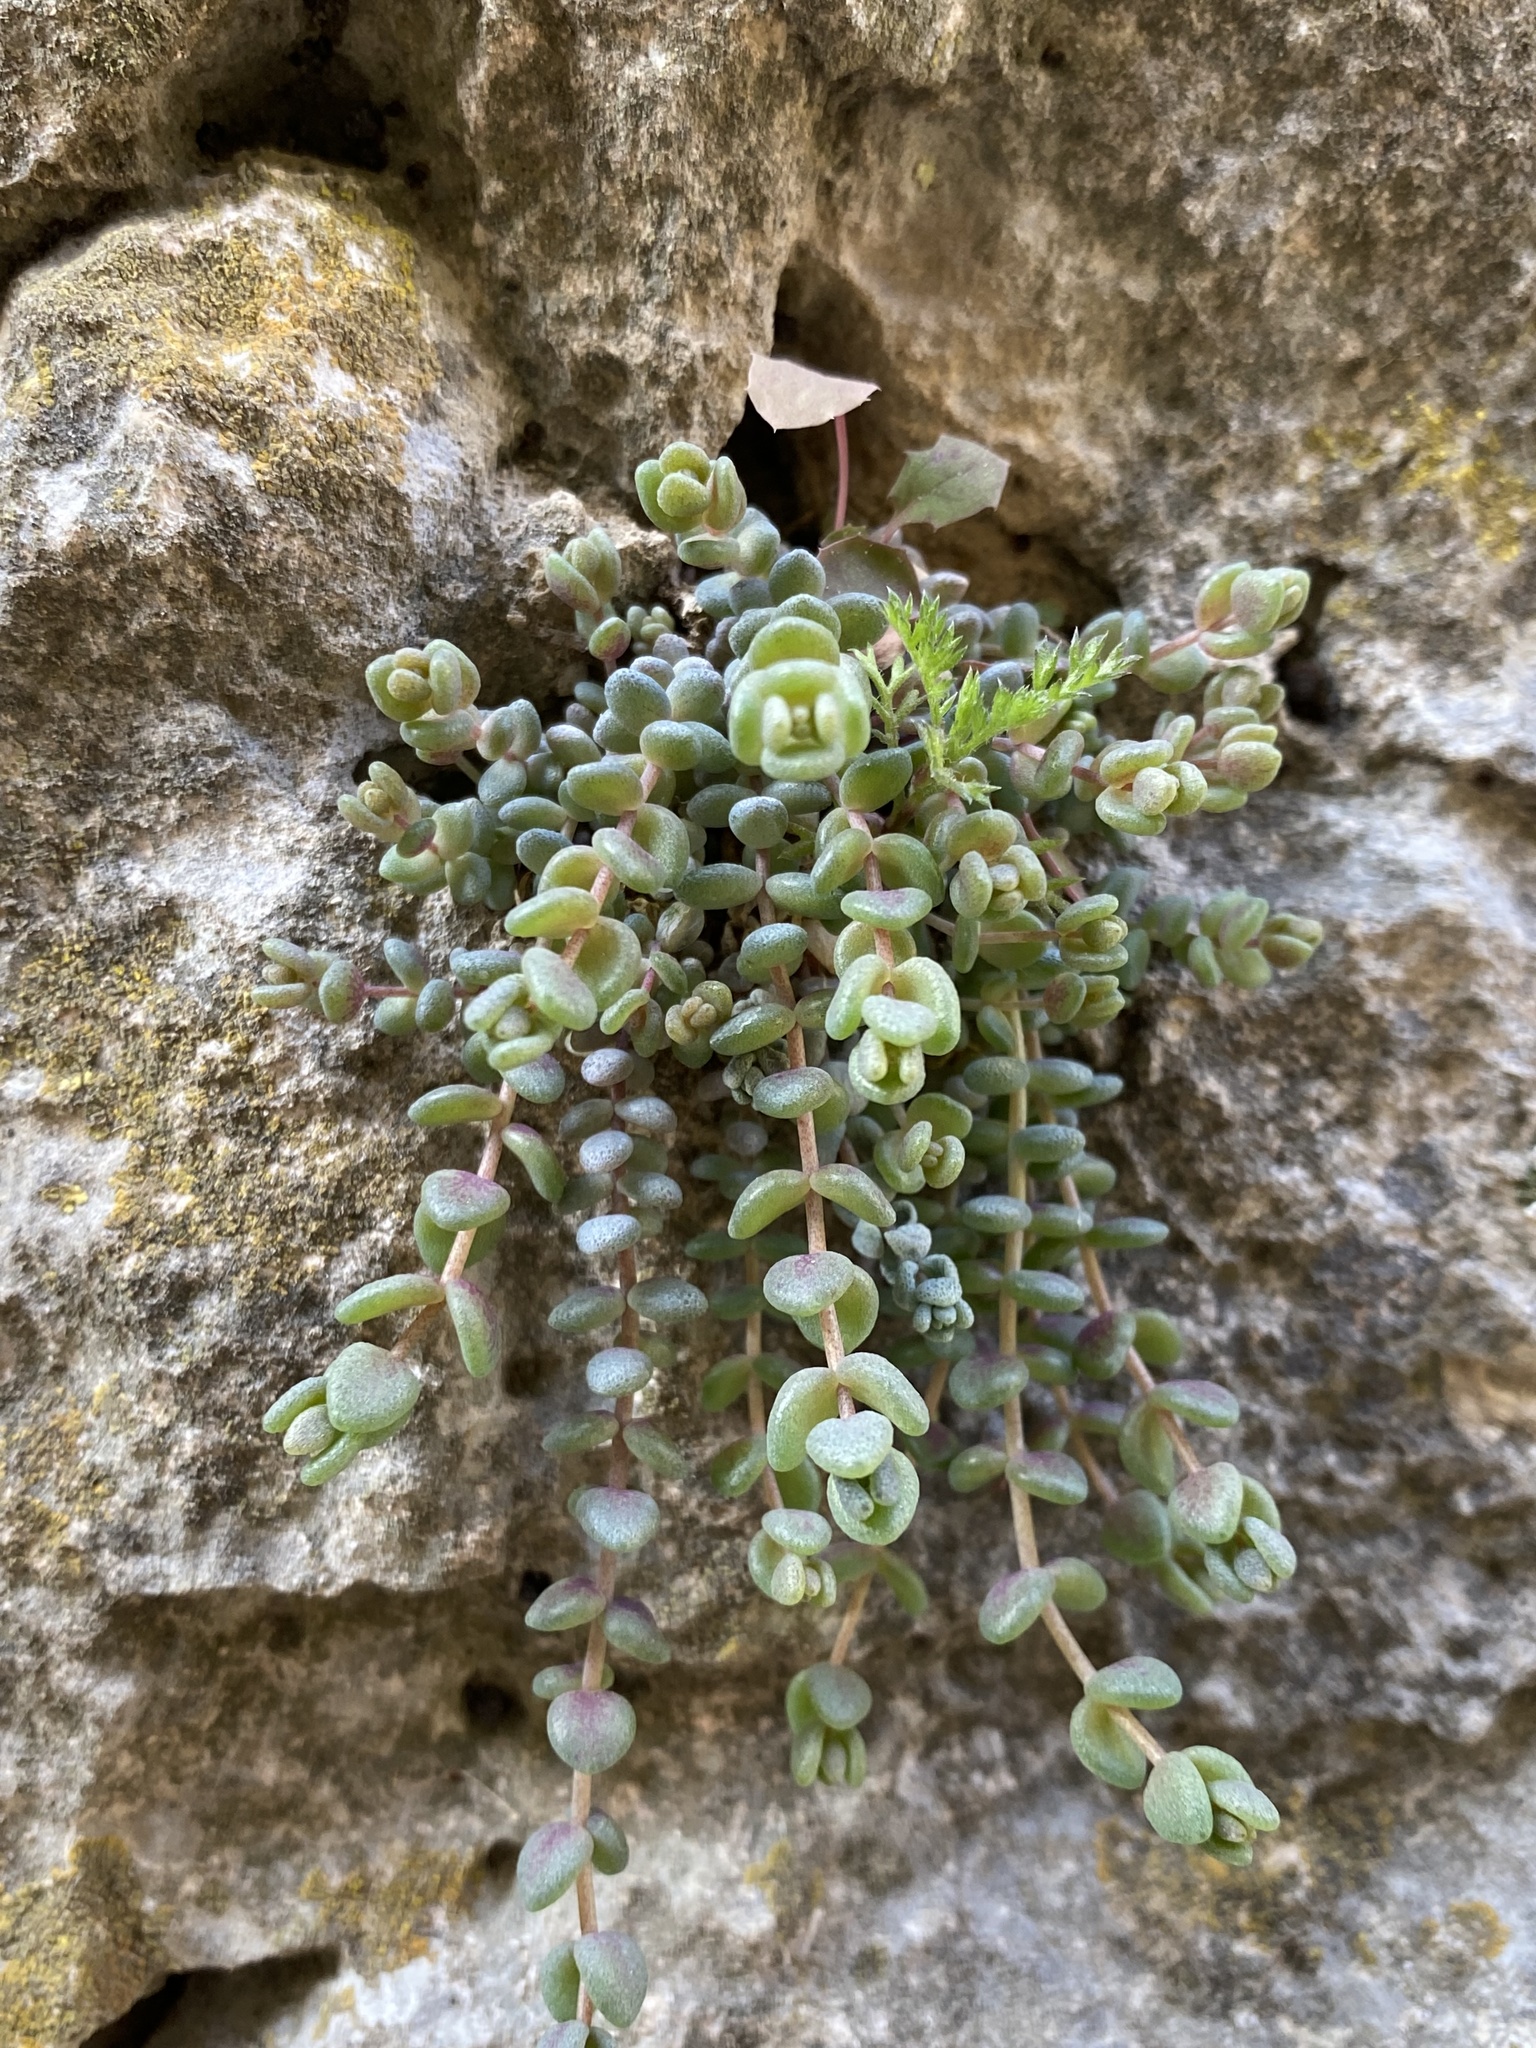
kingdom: Plantae
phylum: Tracheophyta
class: Magnoliopsida
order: Saxifragales
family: Crassulaceae
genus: Sedum
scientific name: Sedum dasyphyllum
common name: Thick-leaf stonecrop
